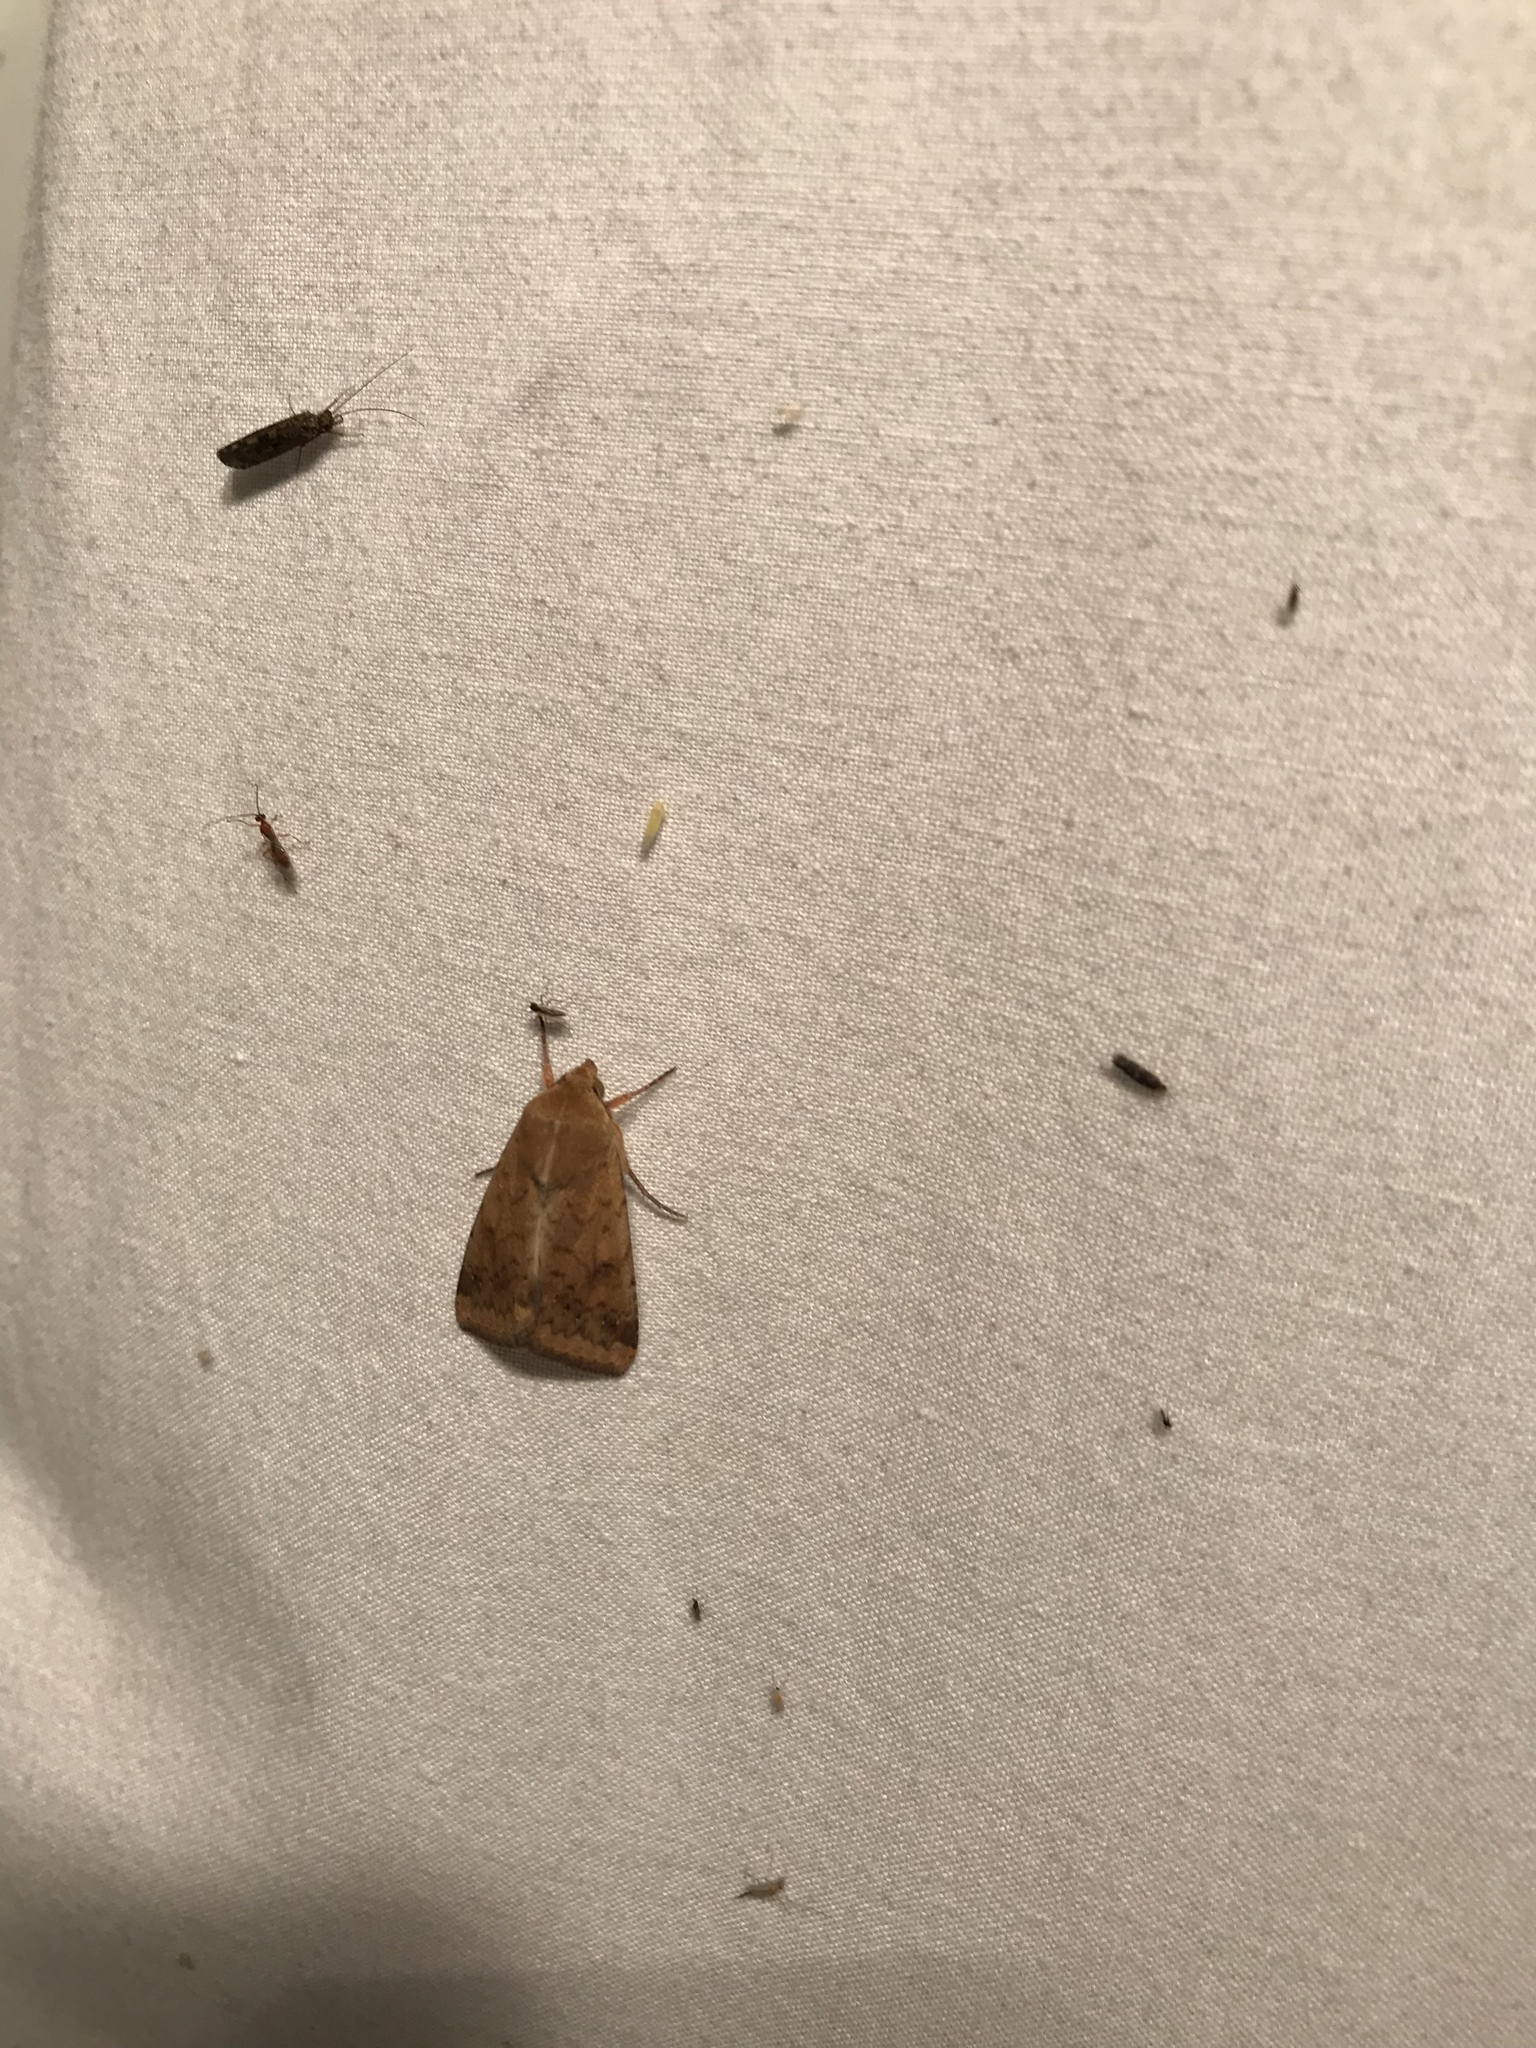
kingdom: Animalia
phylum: Arthropoda
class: Insecta
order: Lepidoptera
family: Noctuidae
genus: Helicoverpa
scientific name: Helicoverpa zea
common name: Bollworm
